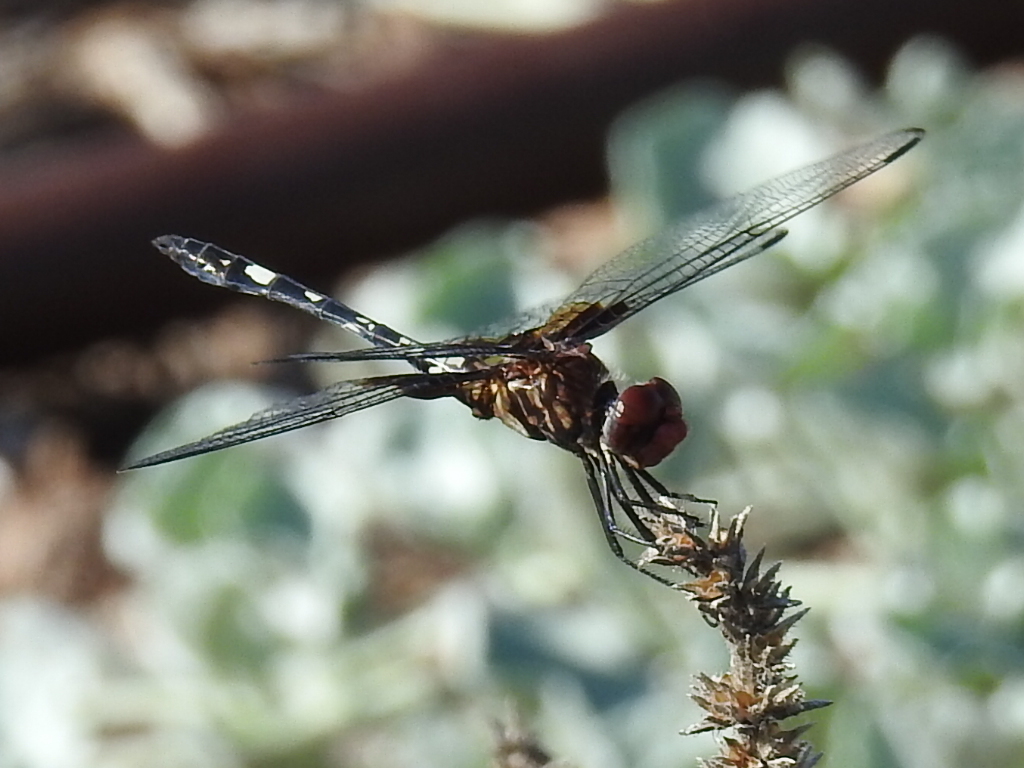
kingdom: Animalia
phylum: Arthropoda
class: Insecta
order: Odonata
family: Libellulidae
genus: Dythemis
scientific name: Dythemis fugax
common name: Checkered setwing
